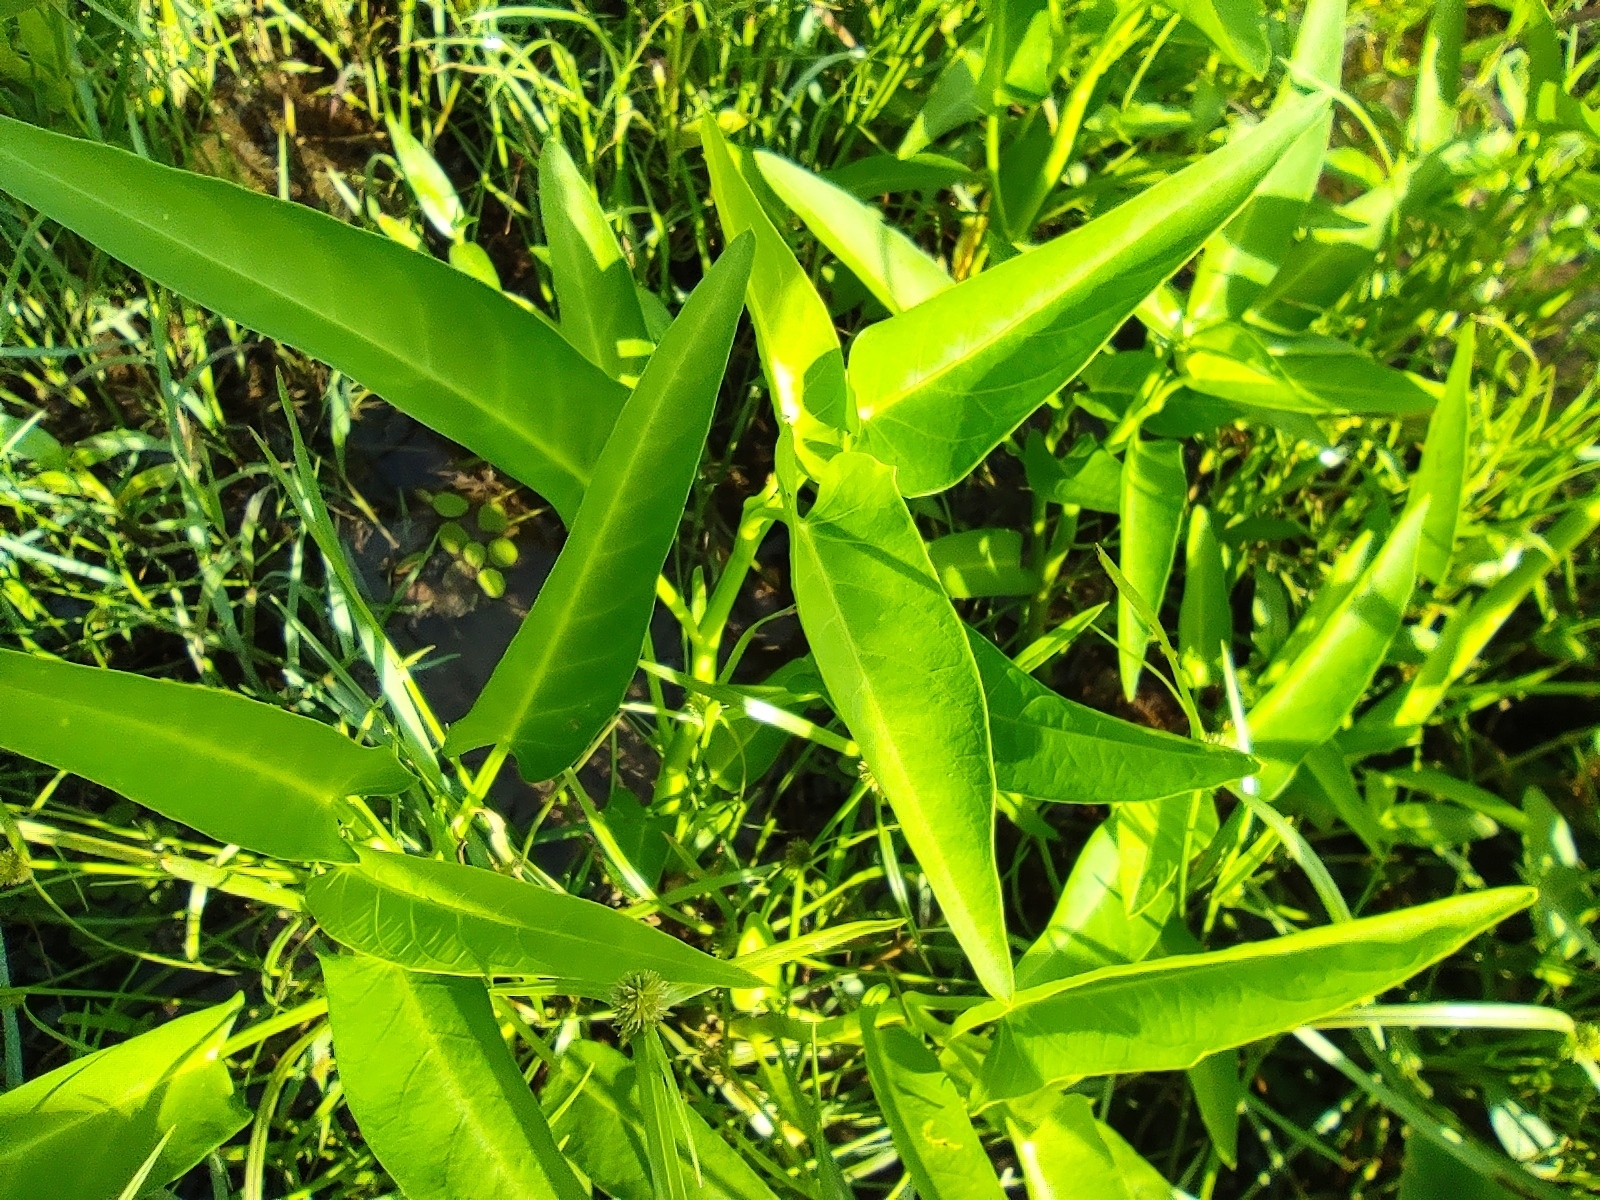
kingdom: Plantae
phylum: Tracheophyta
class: Magnoliopsida
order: Solanales
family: Convolvulaceae
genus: Ipomoea
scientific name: Ipomoea aquatica
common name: Swamp morning-glory
